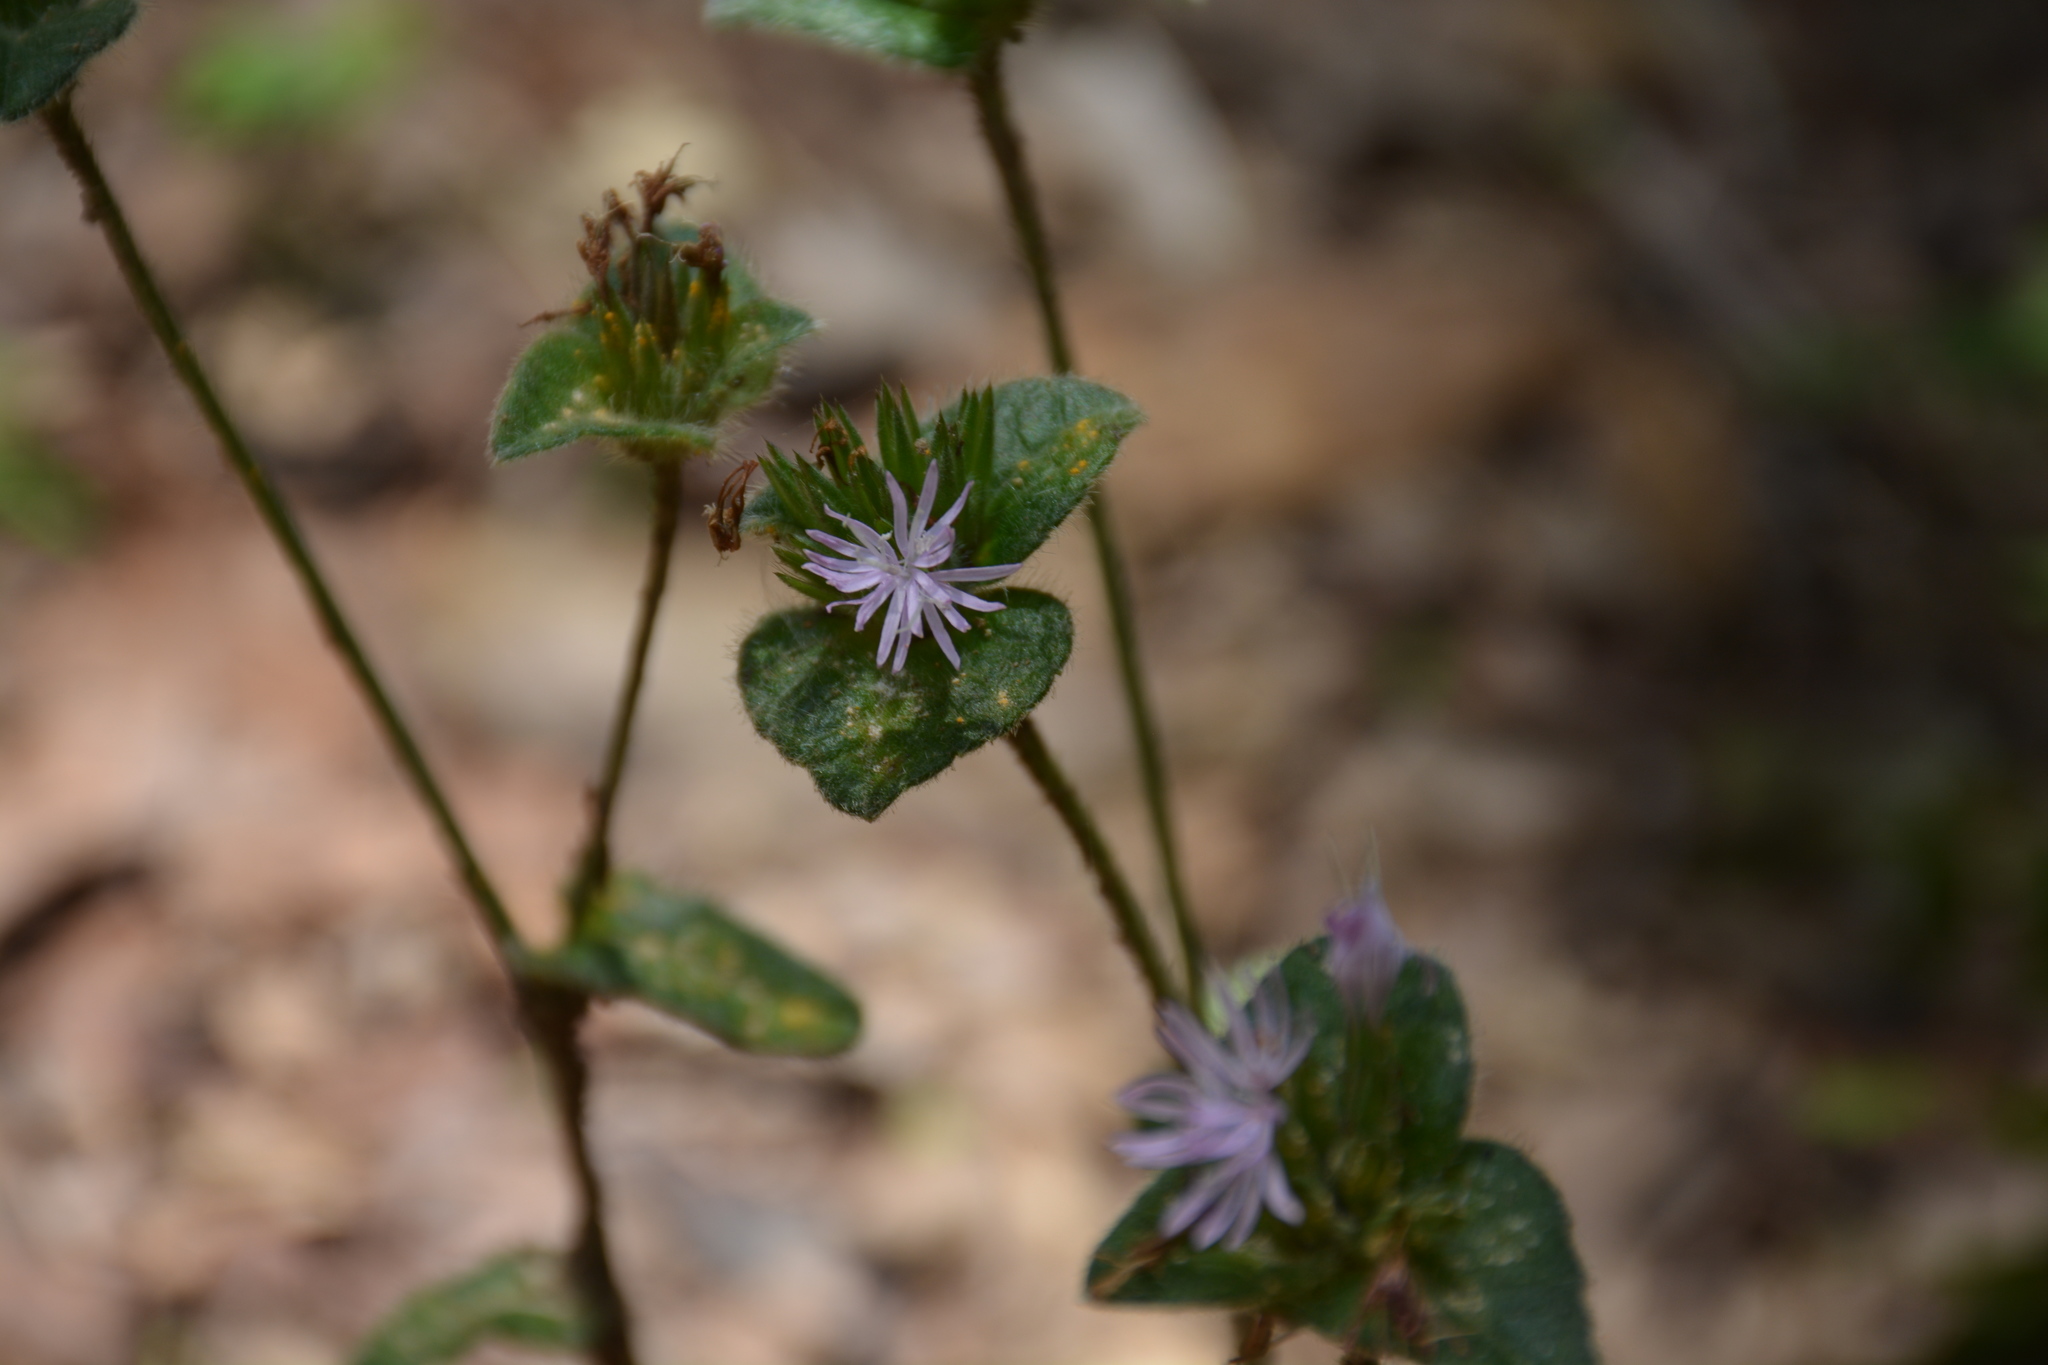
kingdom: Plantae
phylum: Tracheophyta
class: Magnoliopsida
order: Asterales
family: Asteraceae
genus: Elephantopus
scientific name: Elephantopus tomentosus
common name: Tobacco-weed
